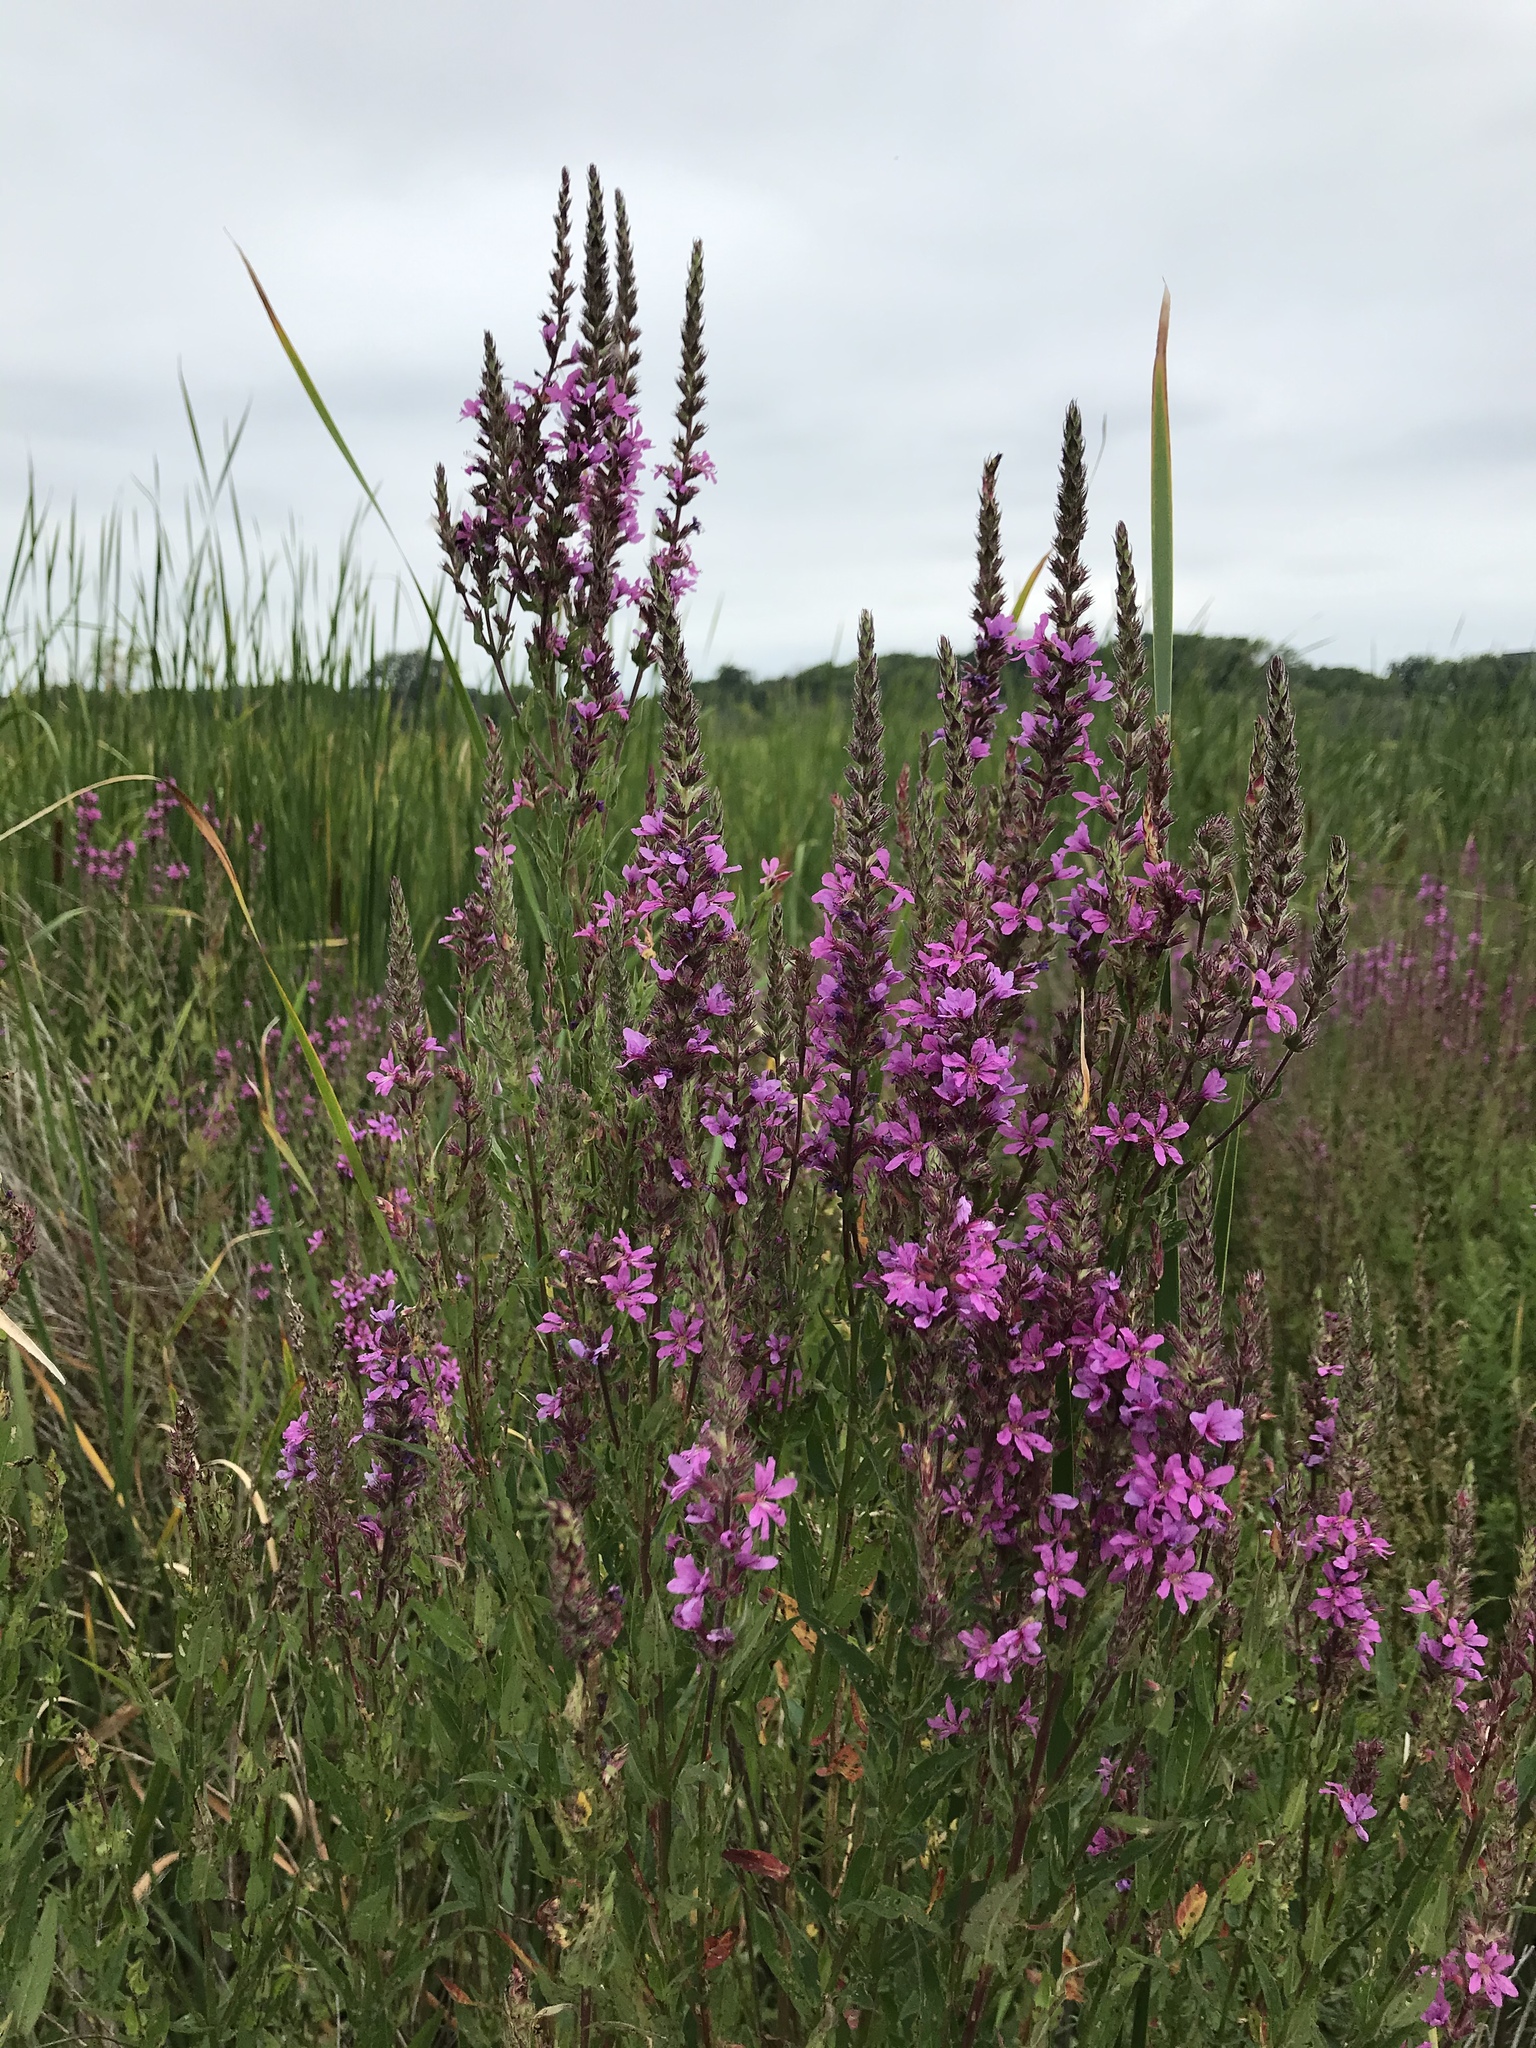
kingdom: Plantae
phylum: Tracheophyta
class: Magnoliopsida
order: Myrtales
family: Lythraceae
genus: Lythrum
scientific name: Lythrum salicaria
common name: Purple loosestrife
